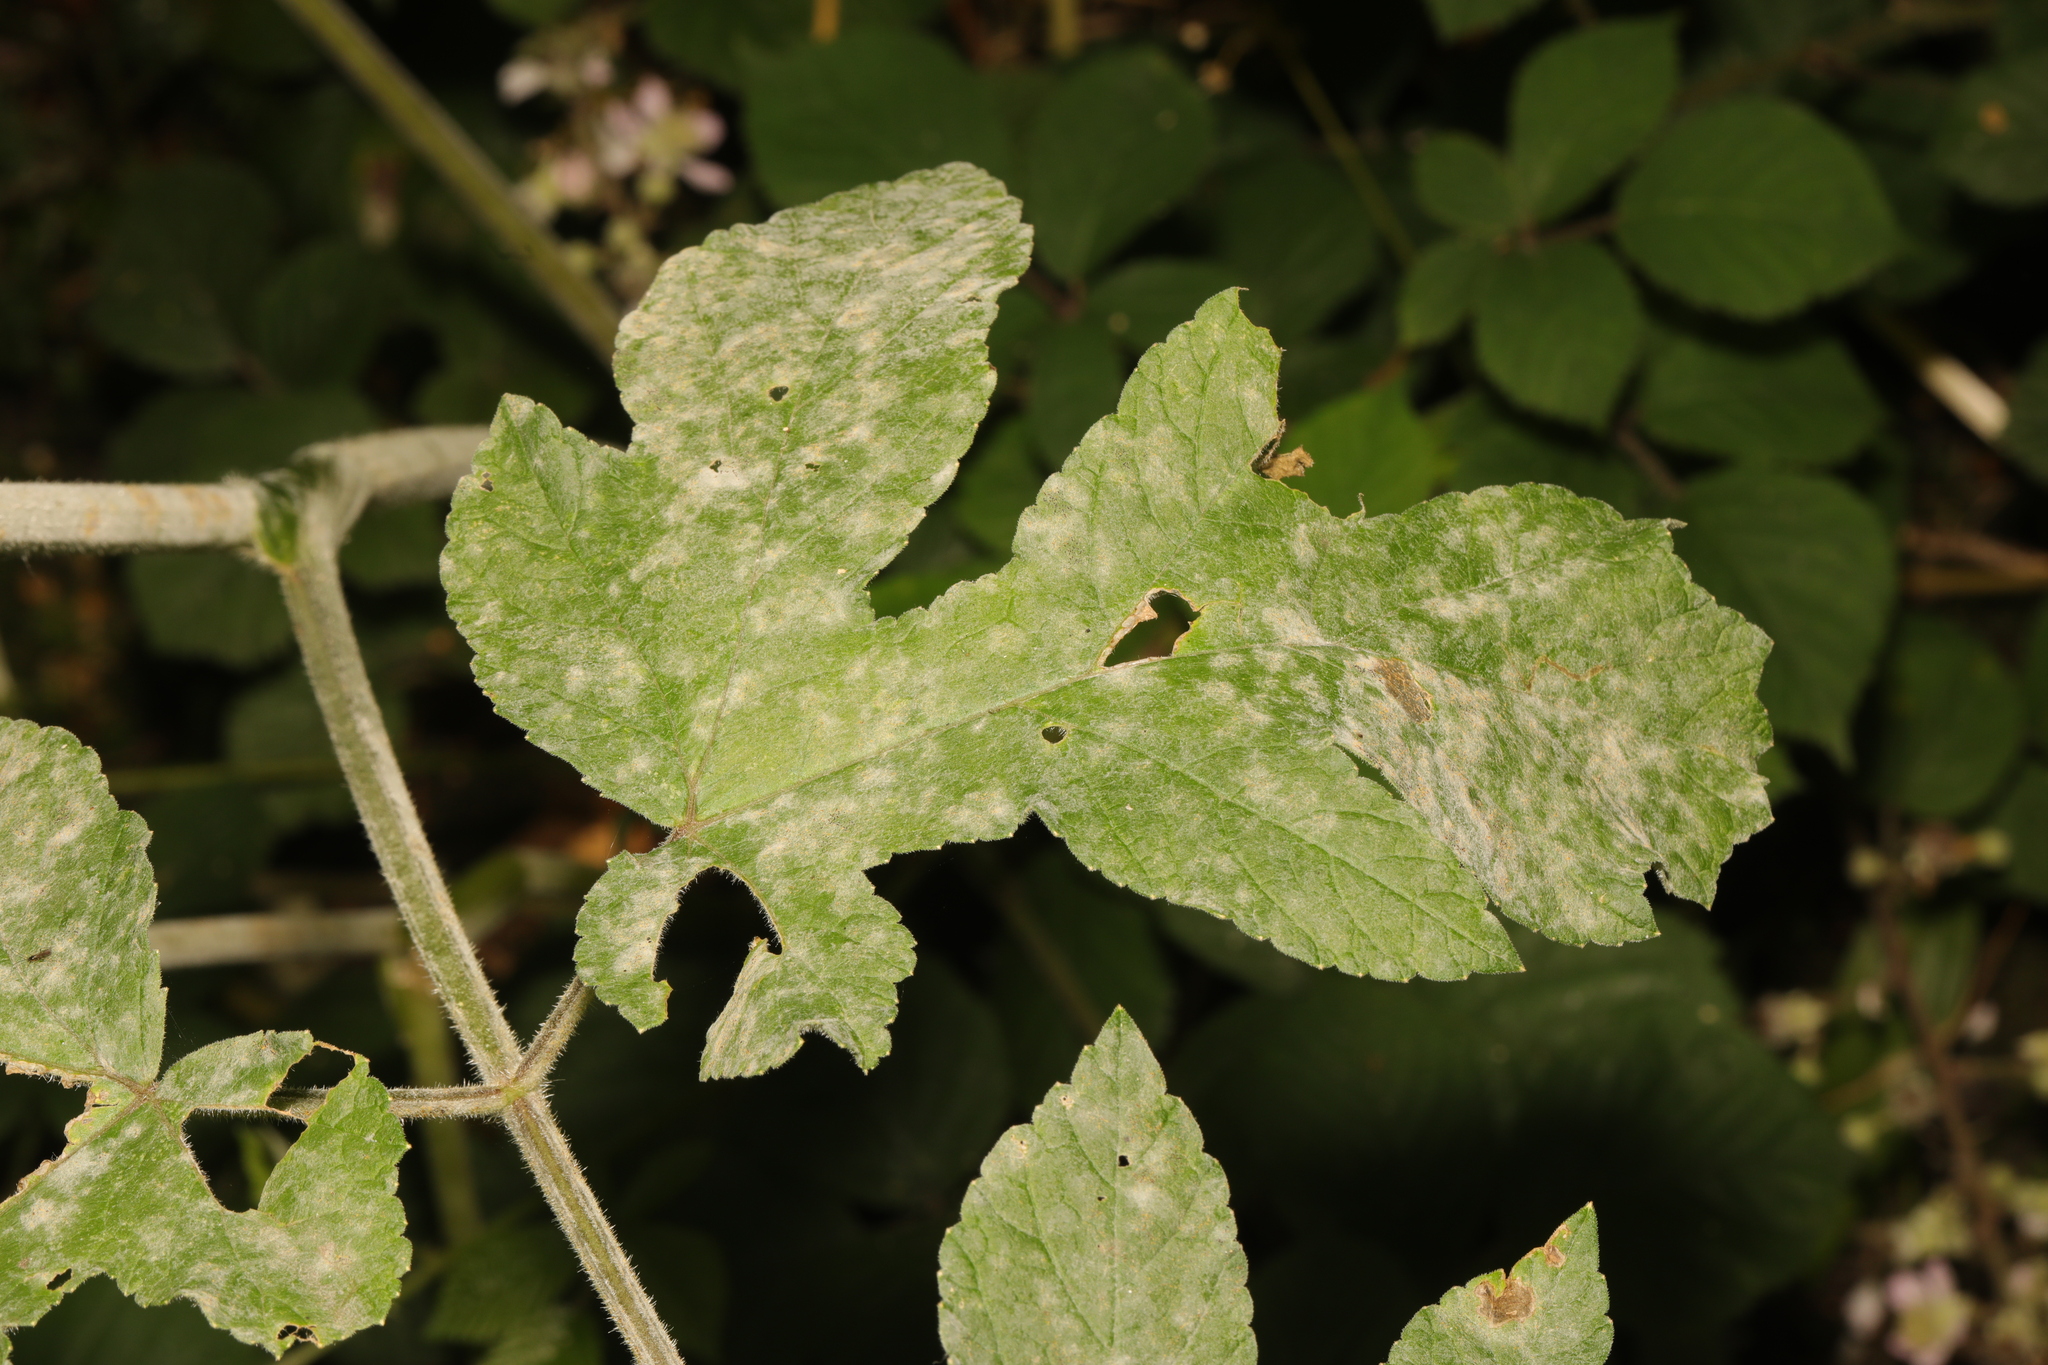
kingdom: Fungi
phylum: Ascomycota
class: Leotiomycetes
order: Helotiales
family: Erysiphaceae
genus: Erysiphe
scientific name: Erysiphe heraclei
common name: Umbellifer mildew
